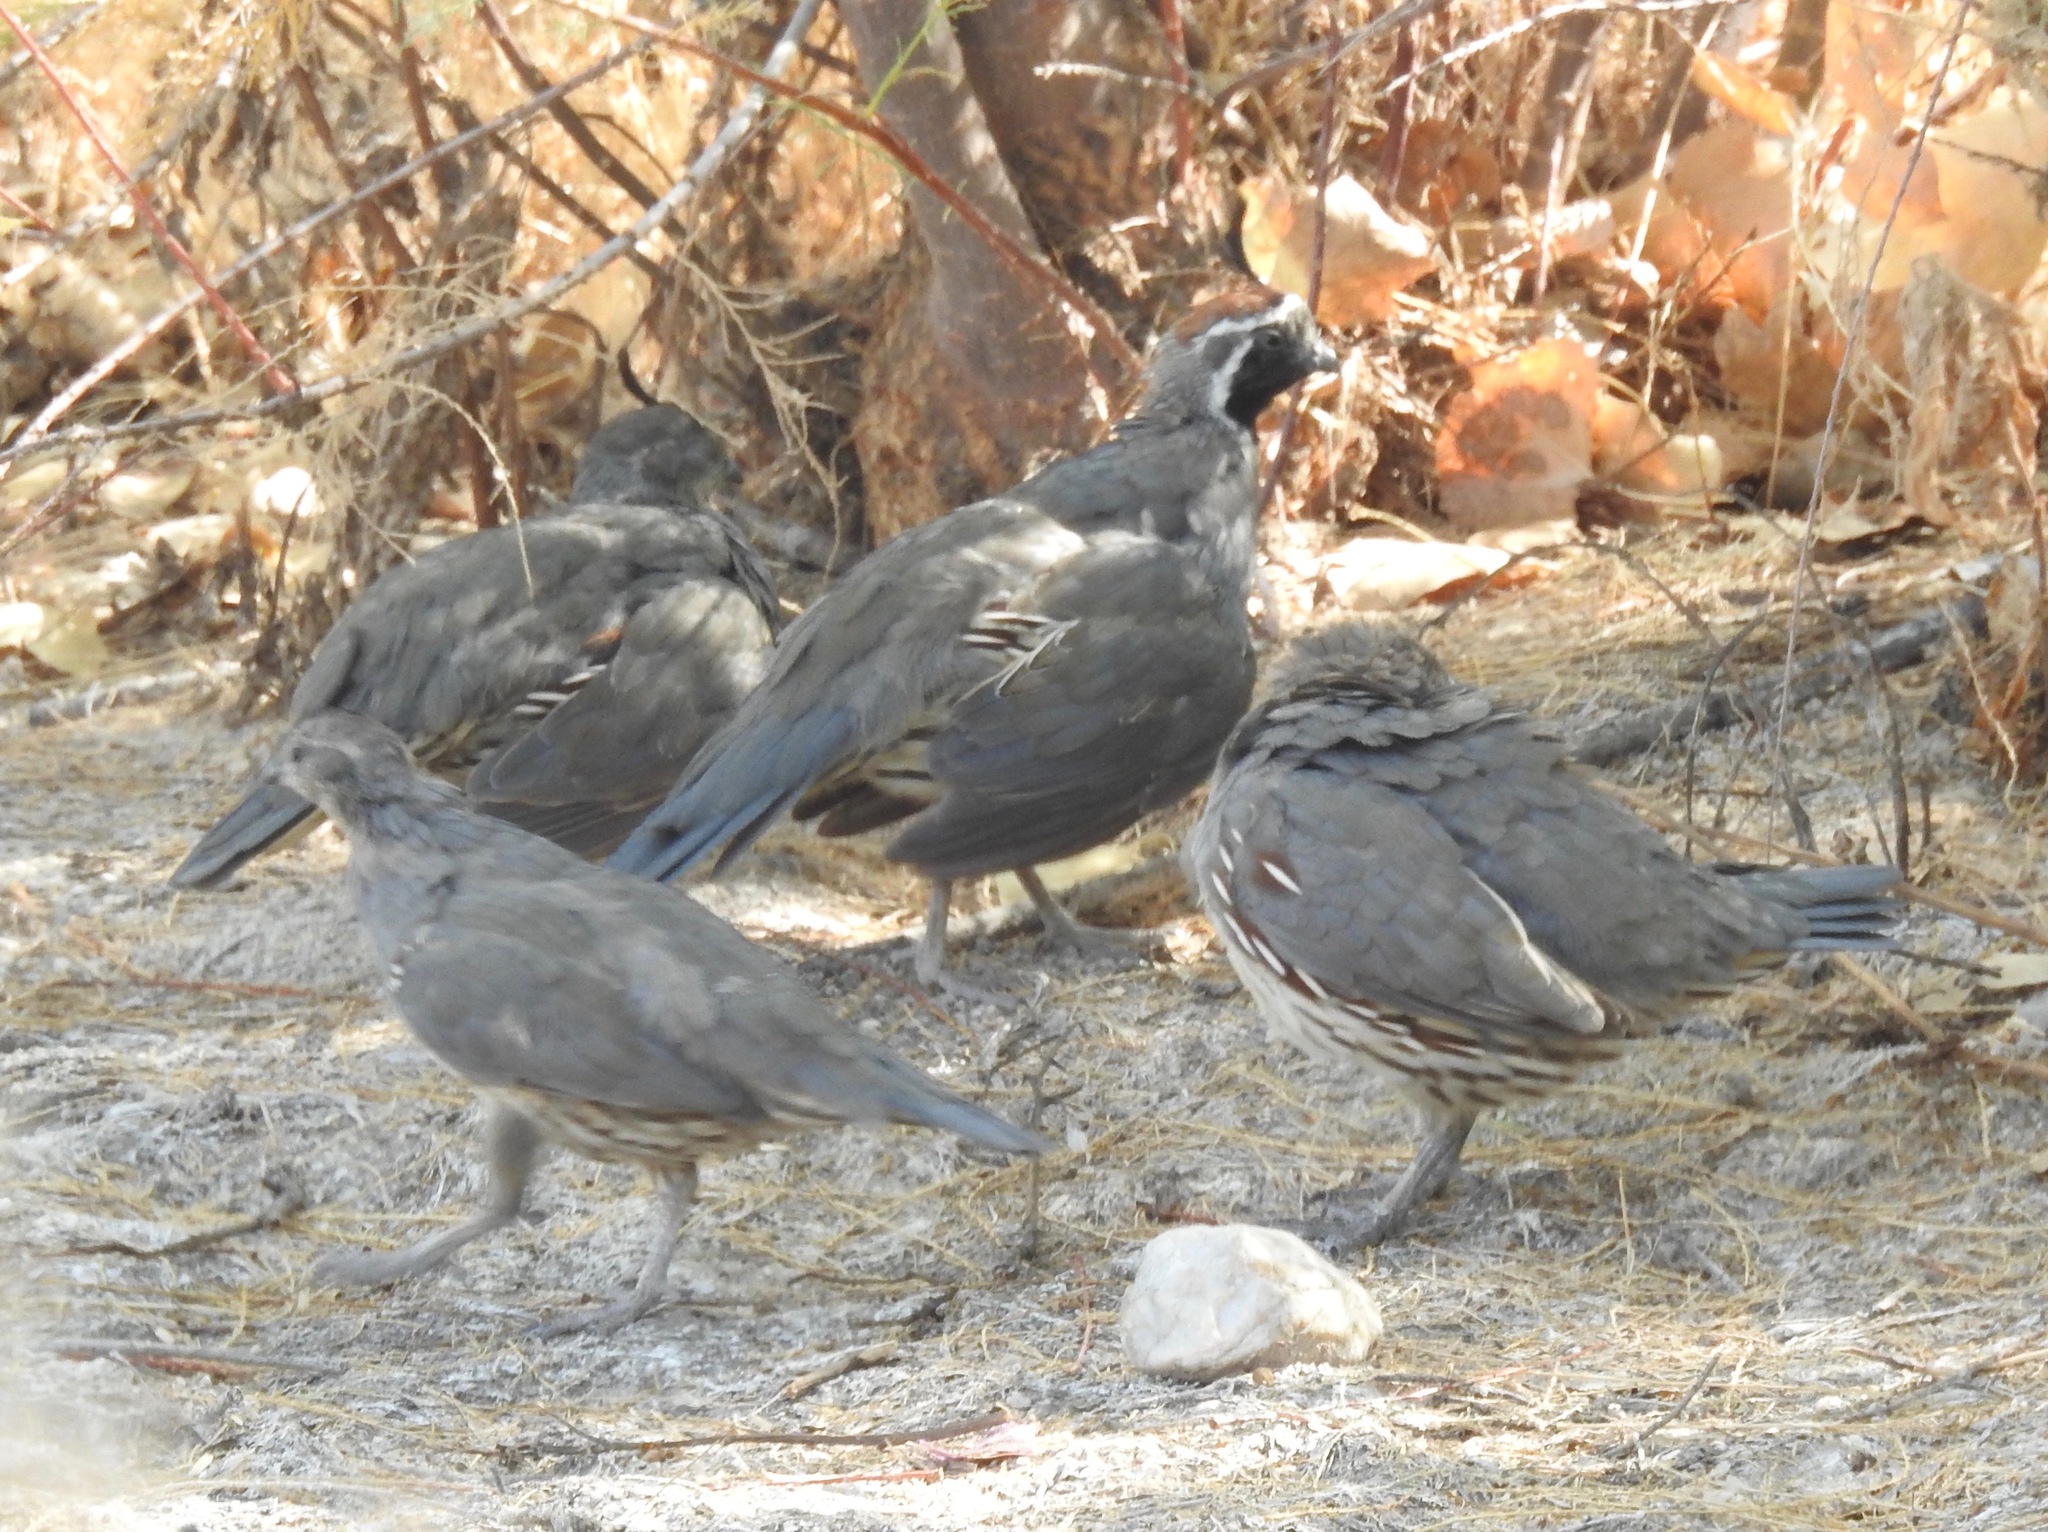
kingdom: Animalia
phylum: Chordata
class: Aves
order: Galliformes
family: Odontophoridae
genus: Callipepla
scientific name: Callipepla gambelii
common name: Gambel's quail
